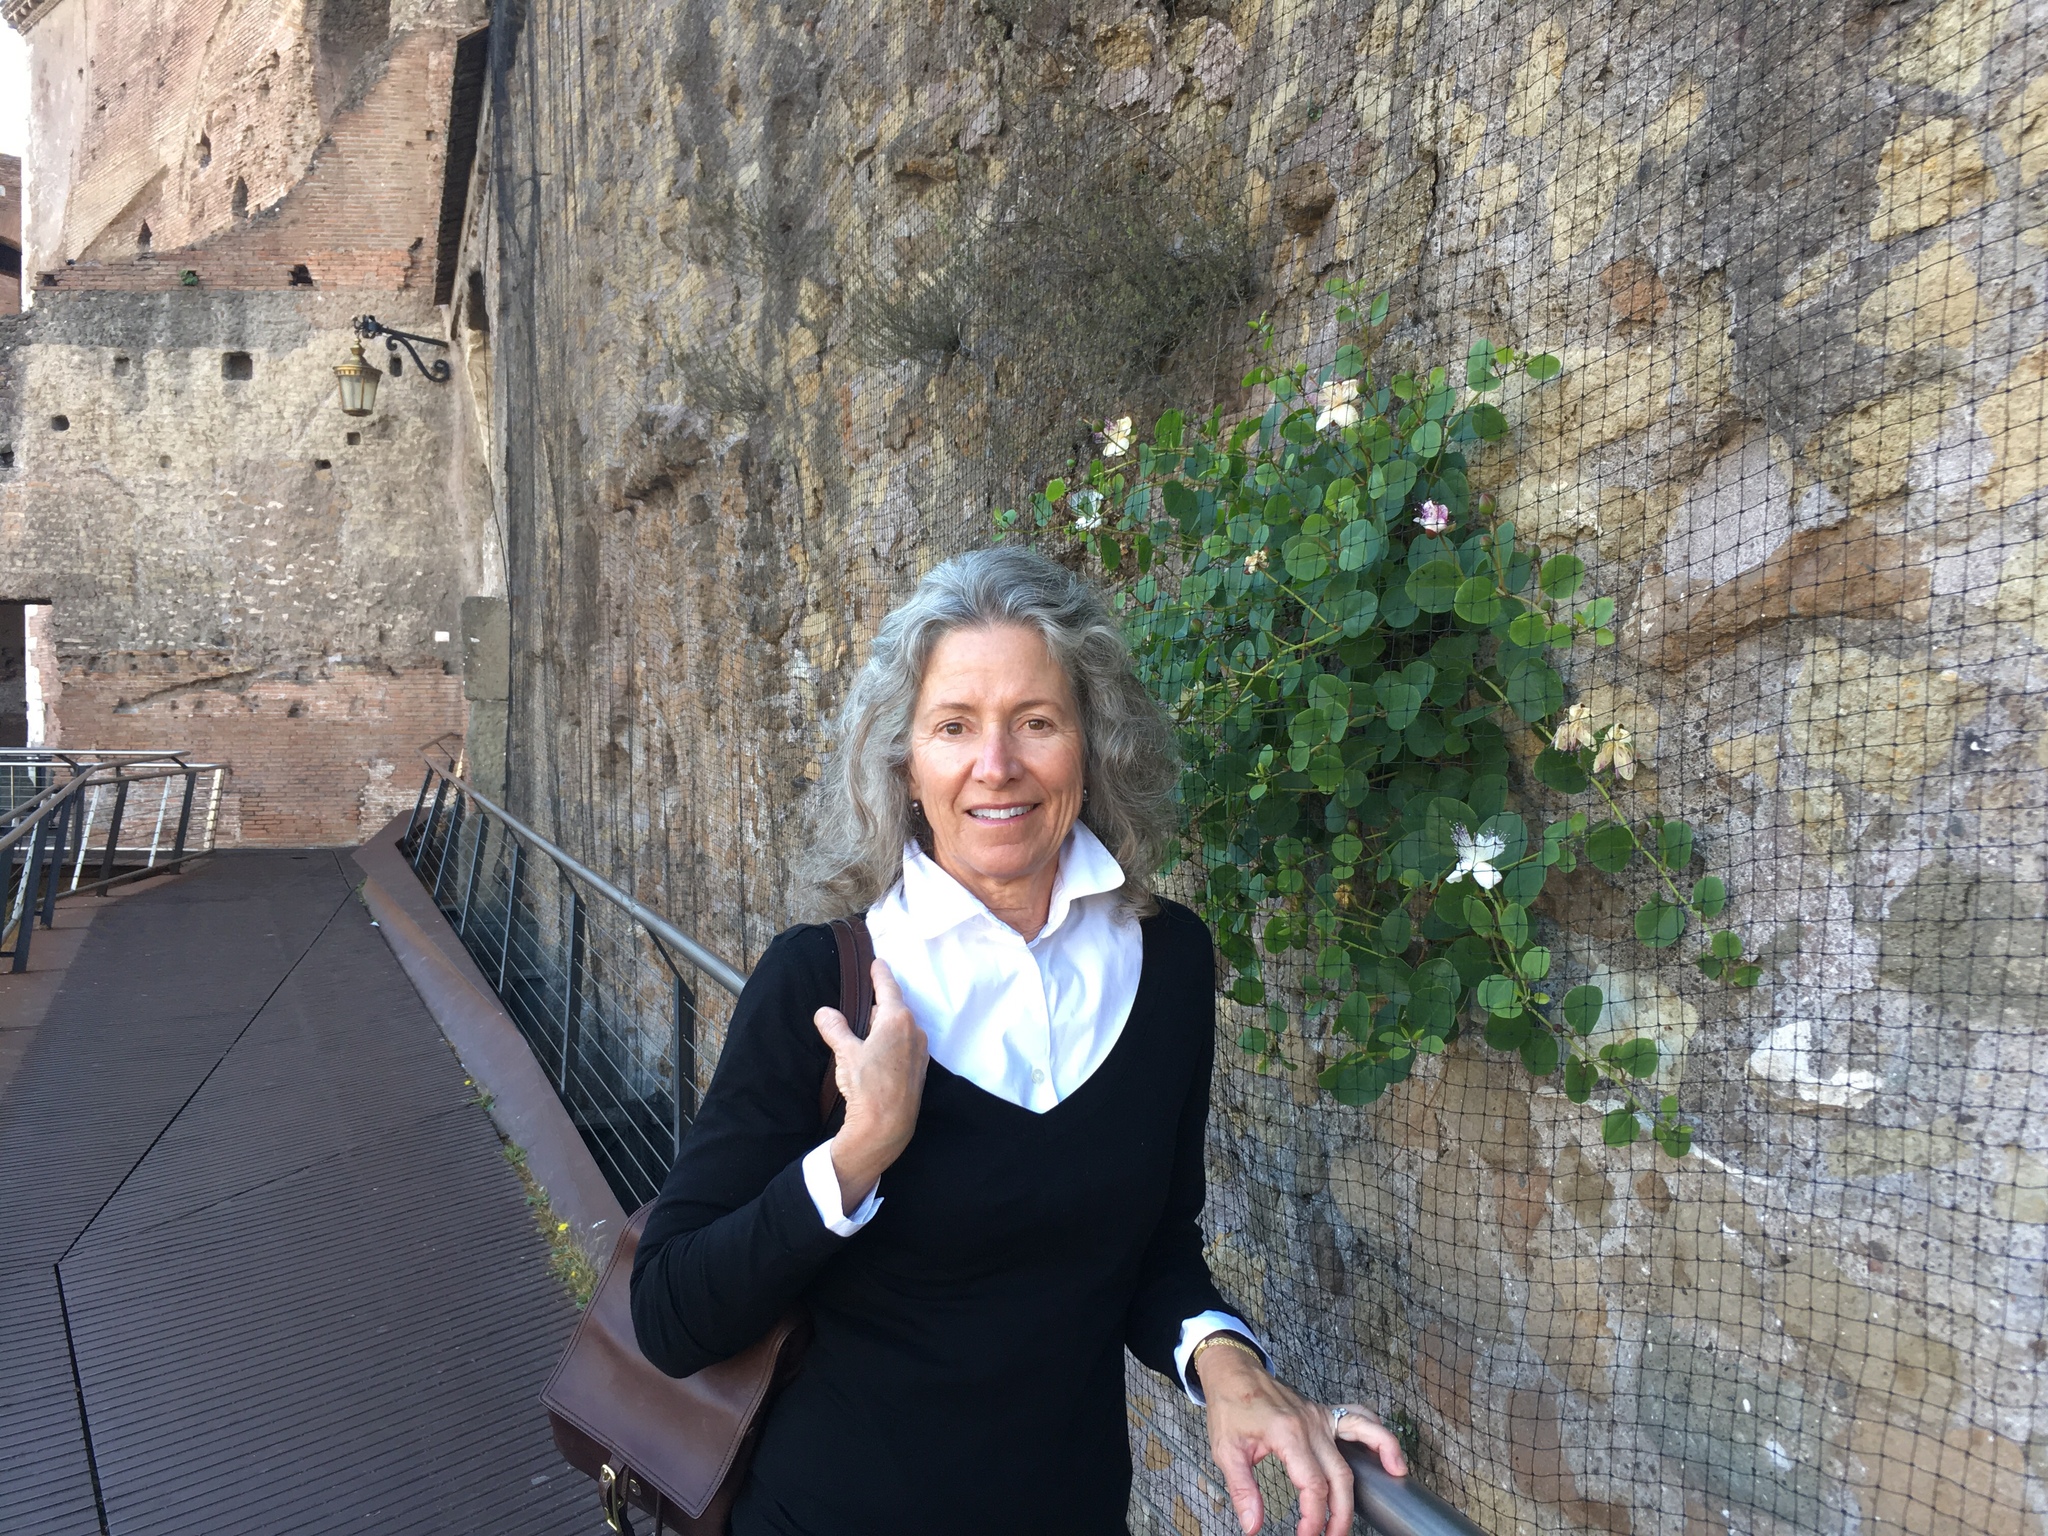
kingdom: Plantae
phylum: Tracheophyta
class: Magnoliopsida
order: Brassicales
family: Capparaceae
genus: Capparis
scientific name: Capparis spinosa
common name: Caper
